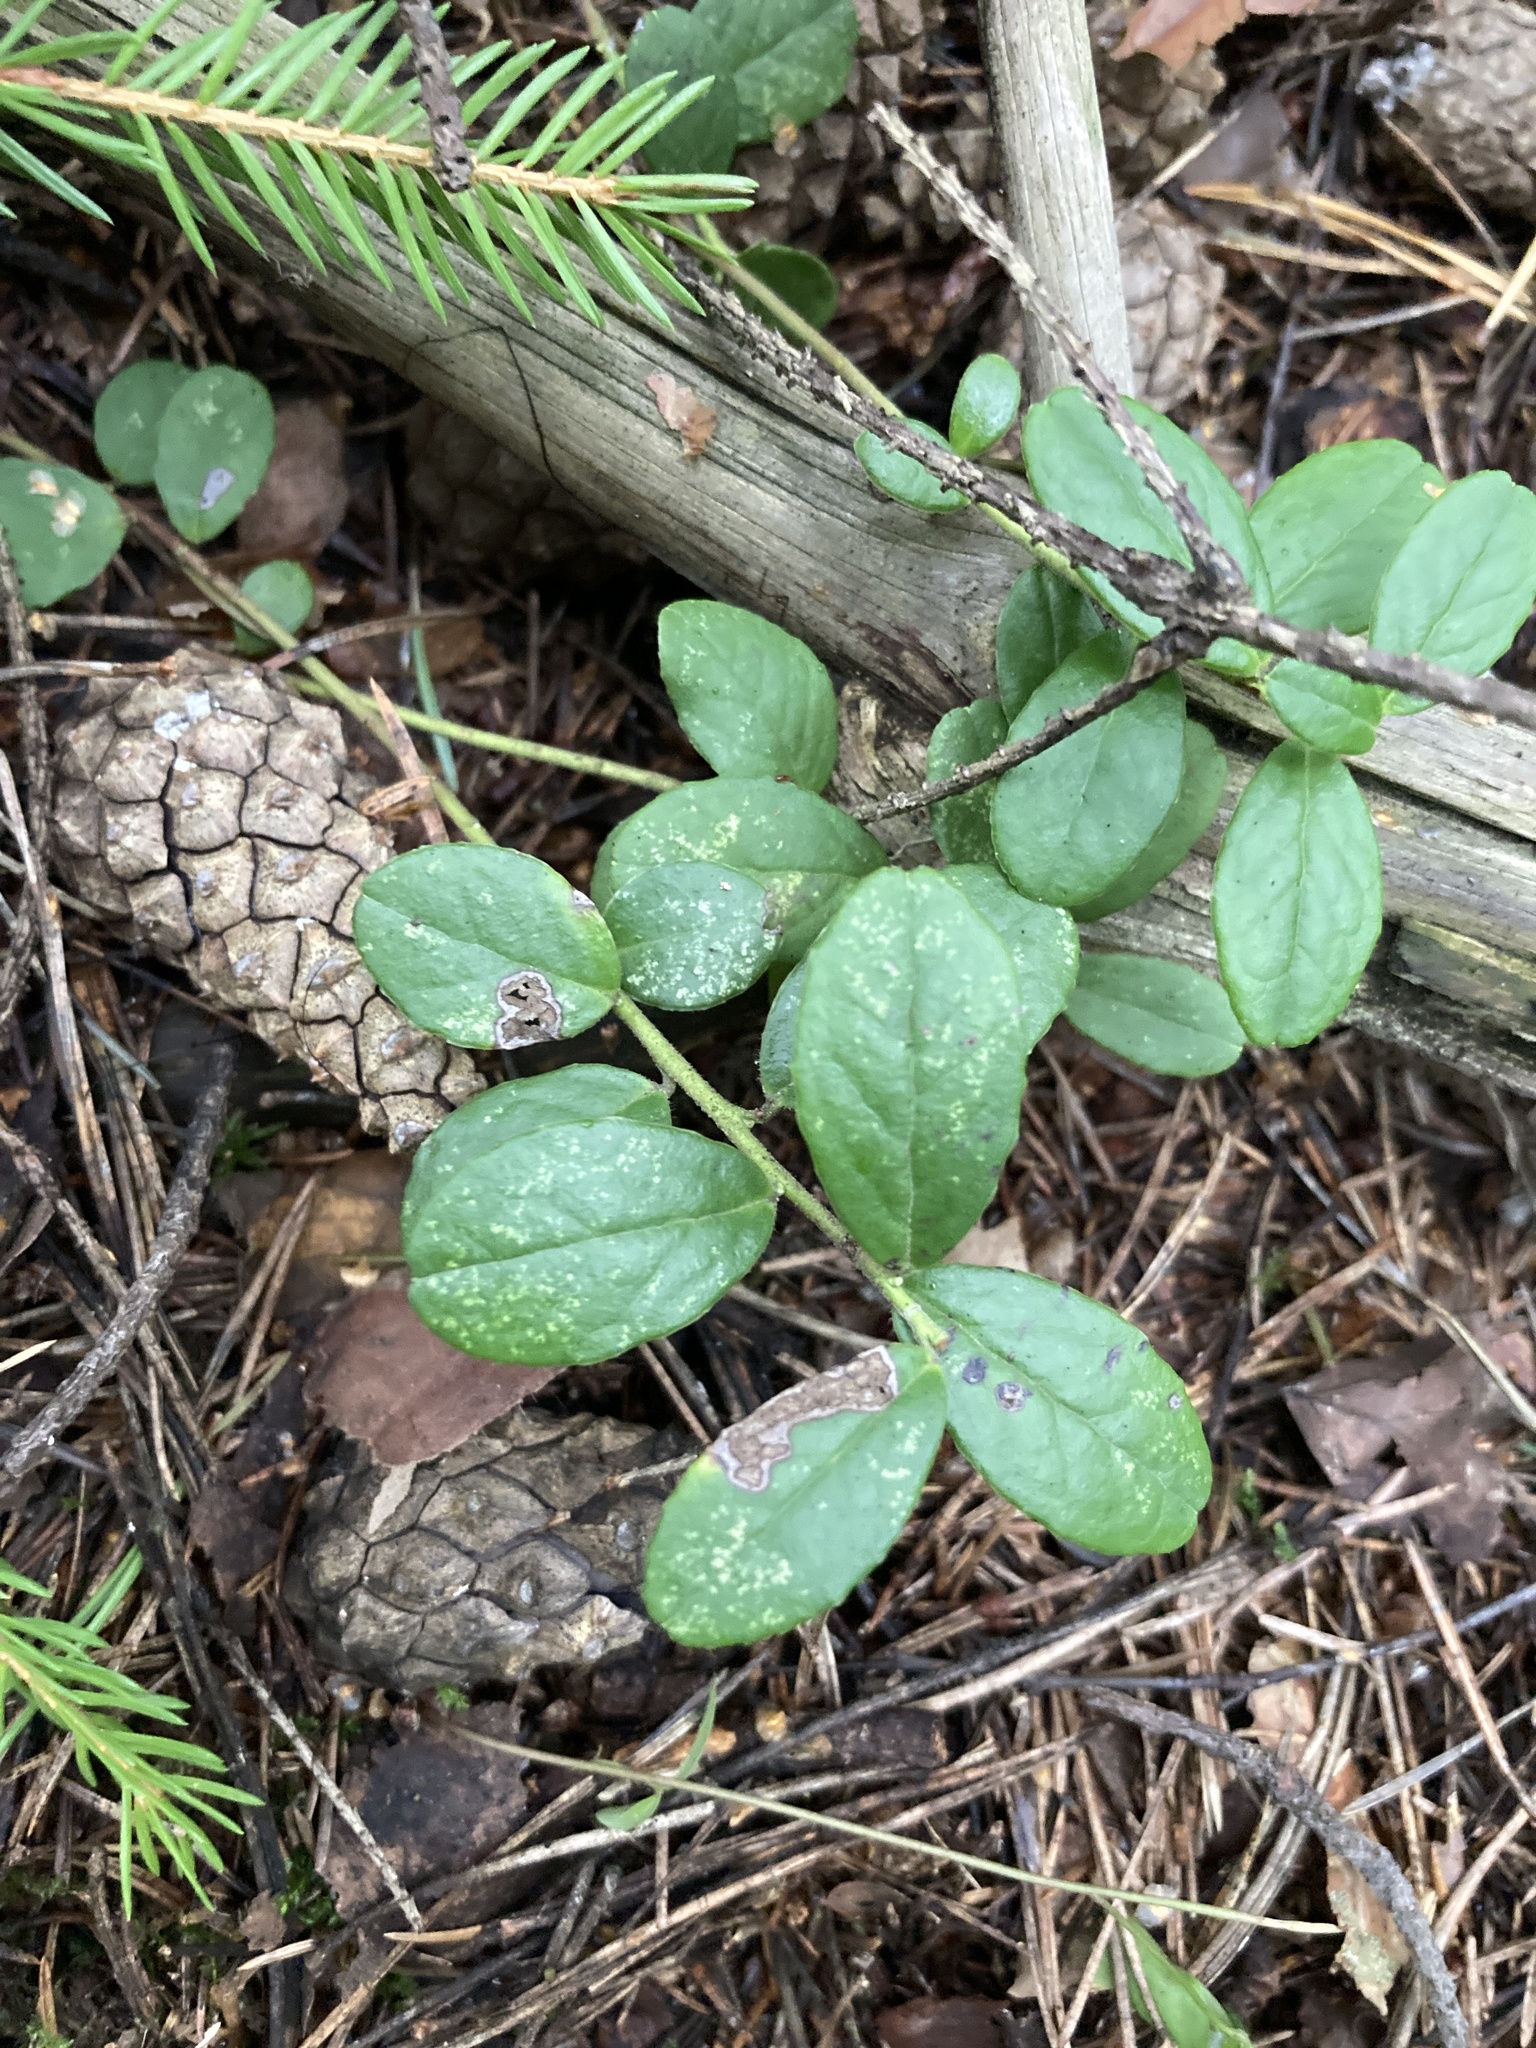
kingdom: Plantae
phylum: Tracheophyta
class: Magnoliopsida
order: Ericales
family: Ericaceae
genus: Vaccinium
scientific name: Vaccinium vitis-idaea
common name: Cowberry
